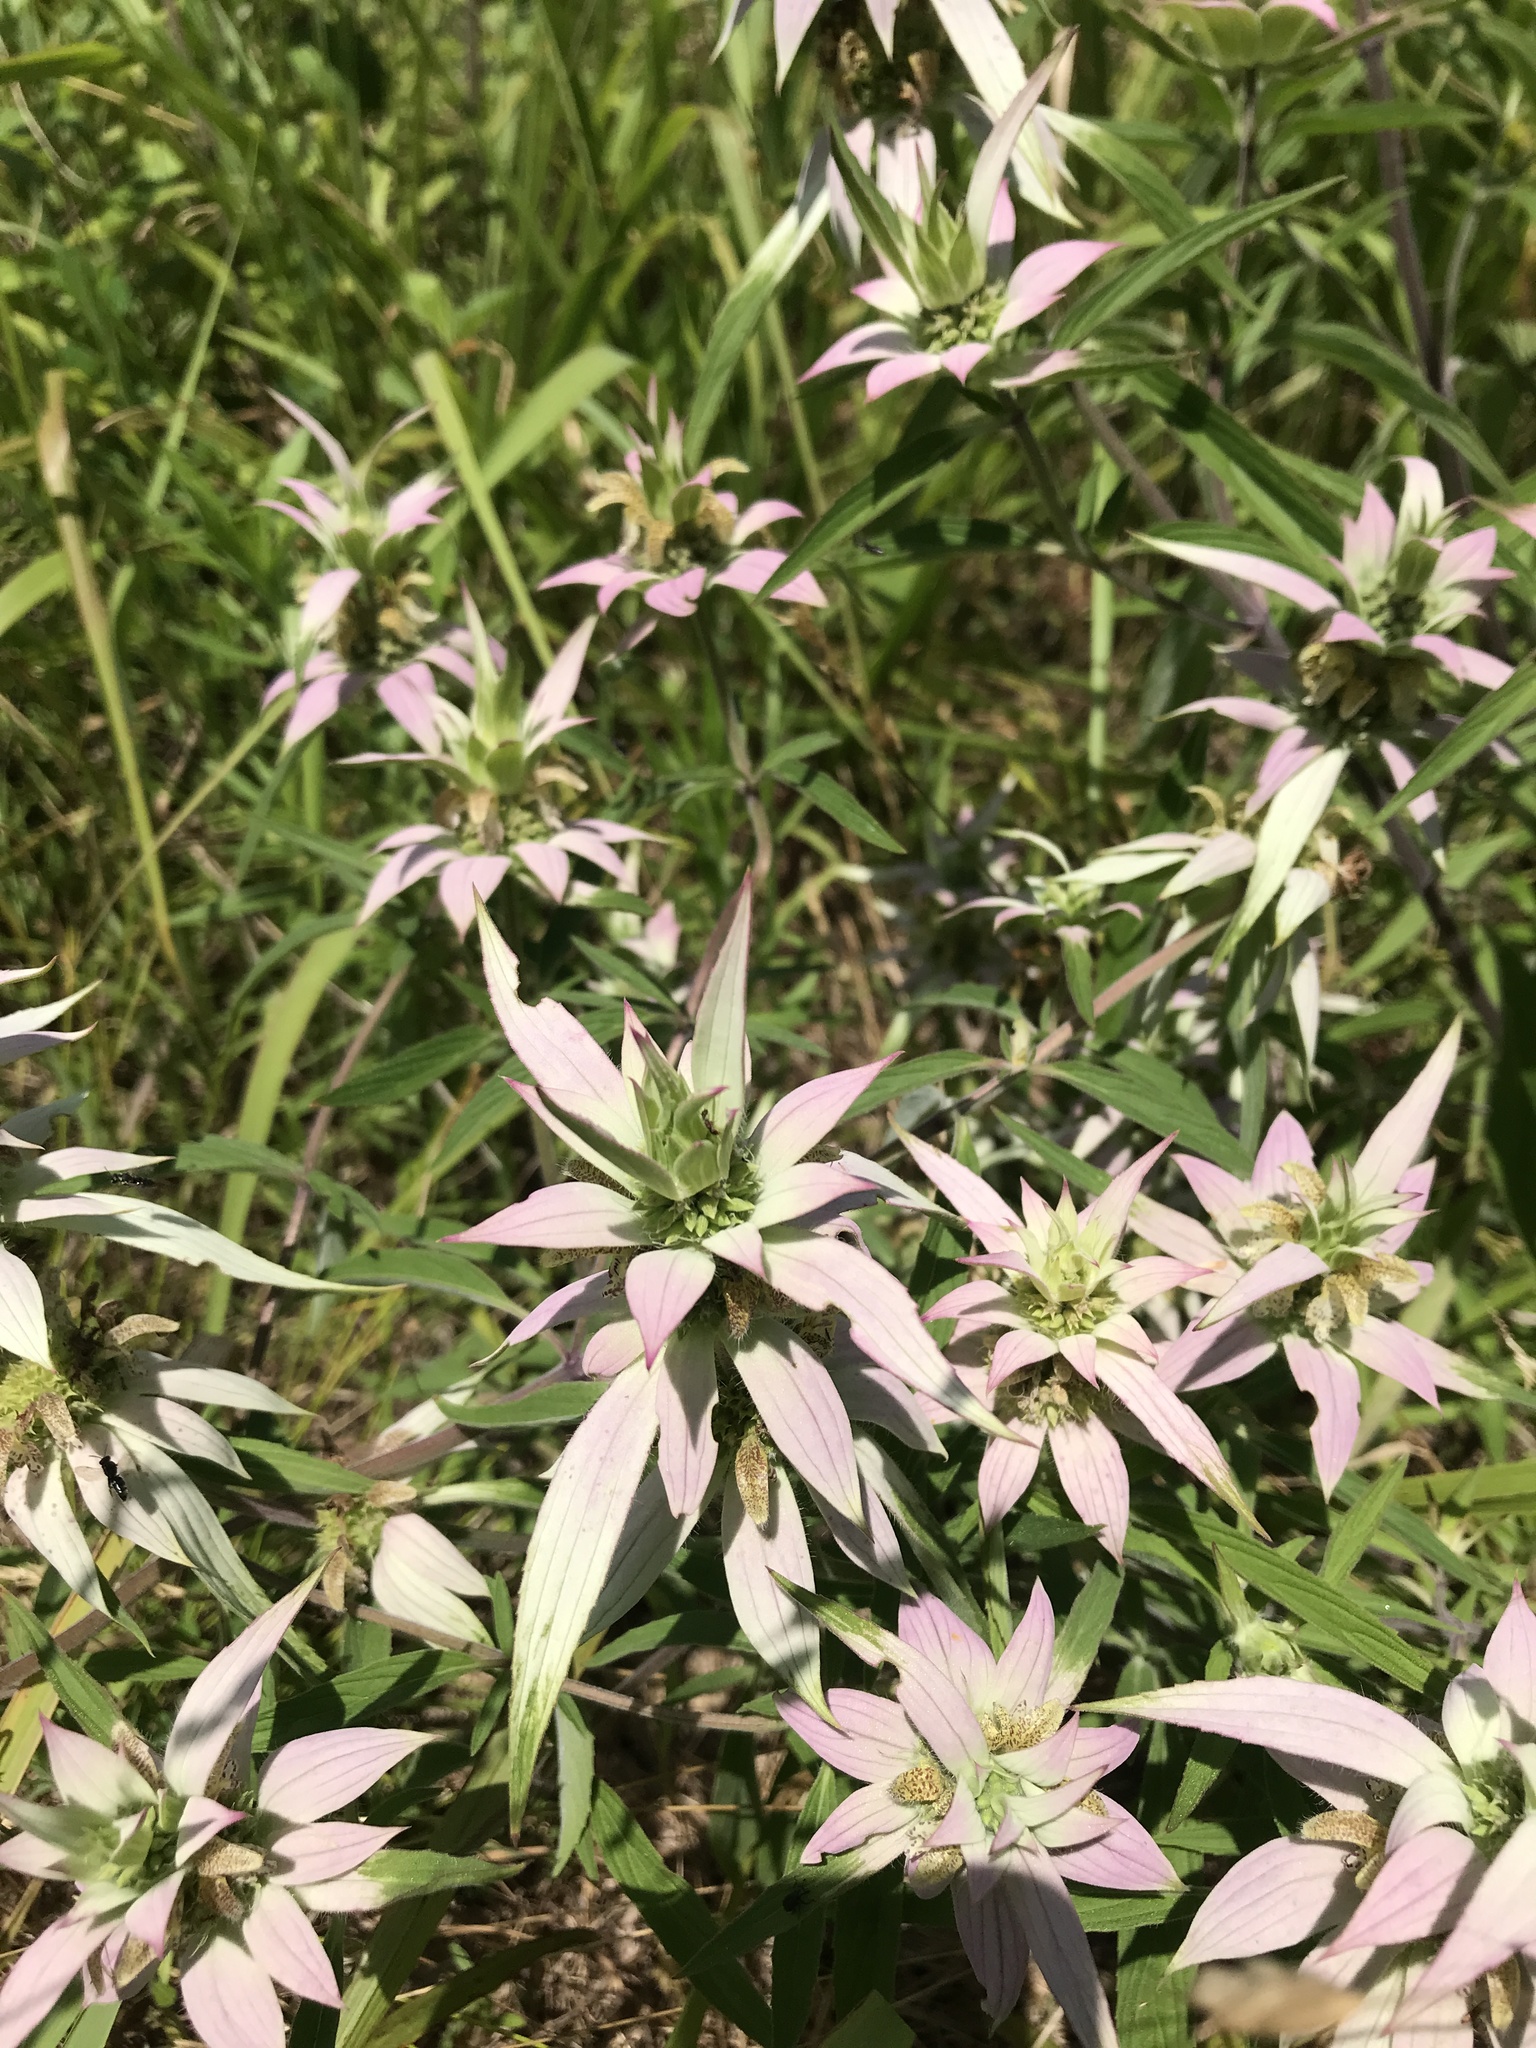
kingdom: Plantae
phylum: Tracheophyta
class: Magnoliopsida
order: Lamiales
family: Lamiaceae
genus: Monarda
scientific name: Monarda punctata
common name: Dotted monarda
